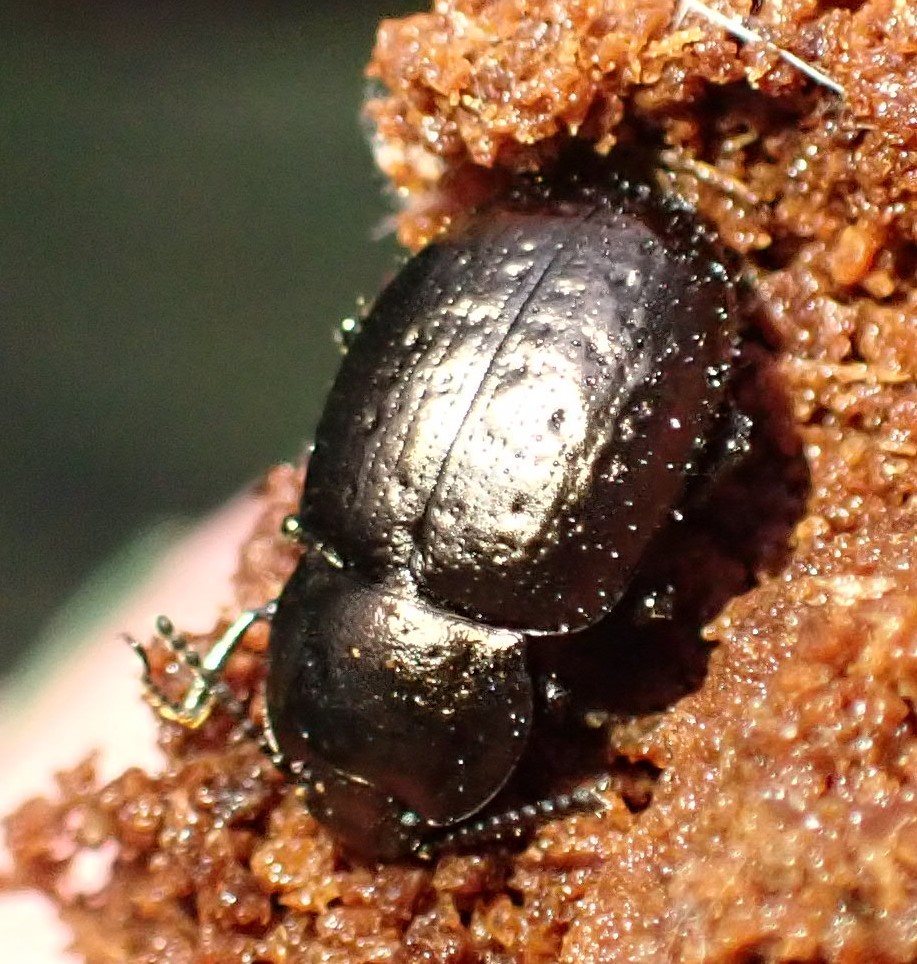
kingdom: Animalia
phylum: Arthropoda
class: Insecta
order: Coleoptera
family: Tenebrionidae
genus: Adelium
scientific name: Adelium abbreviatum
